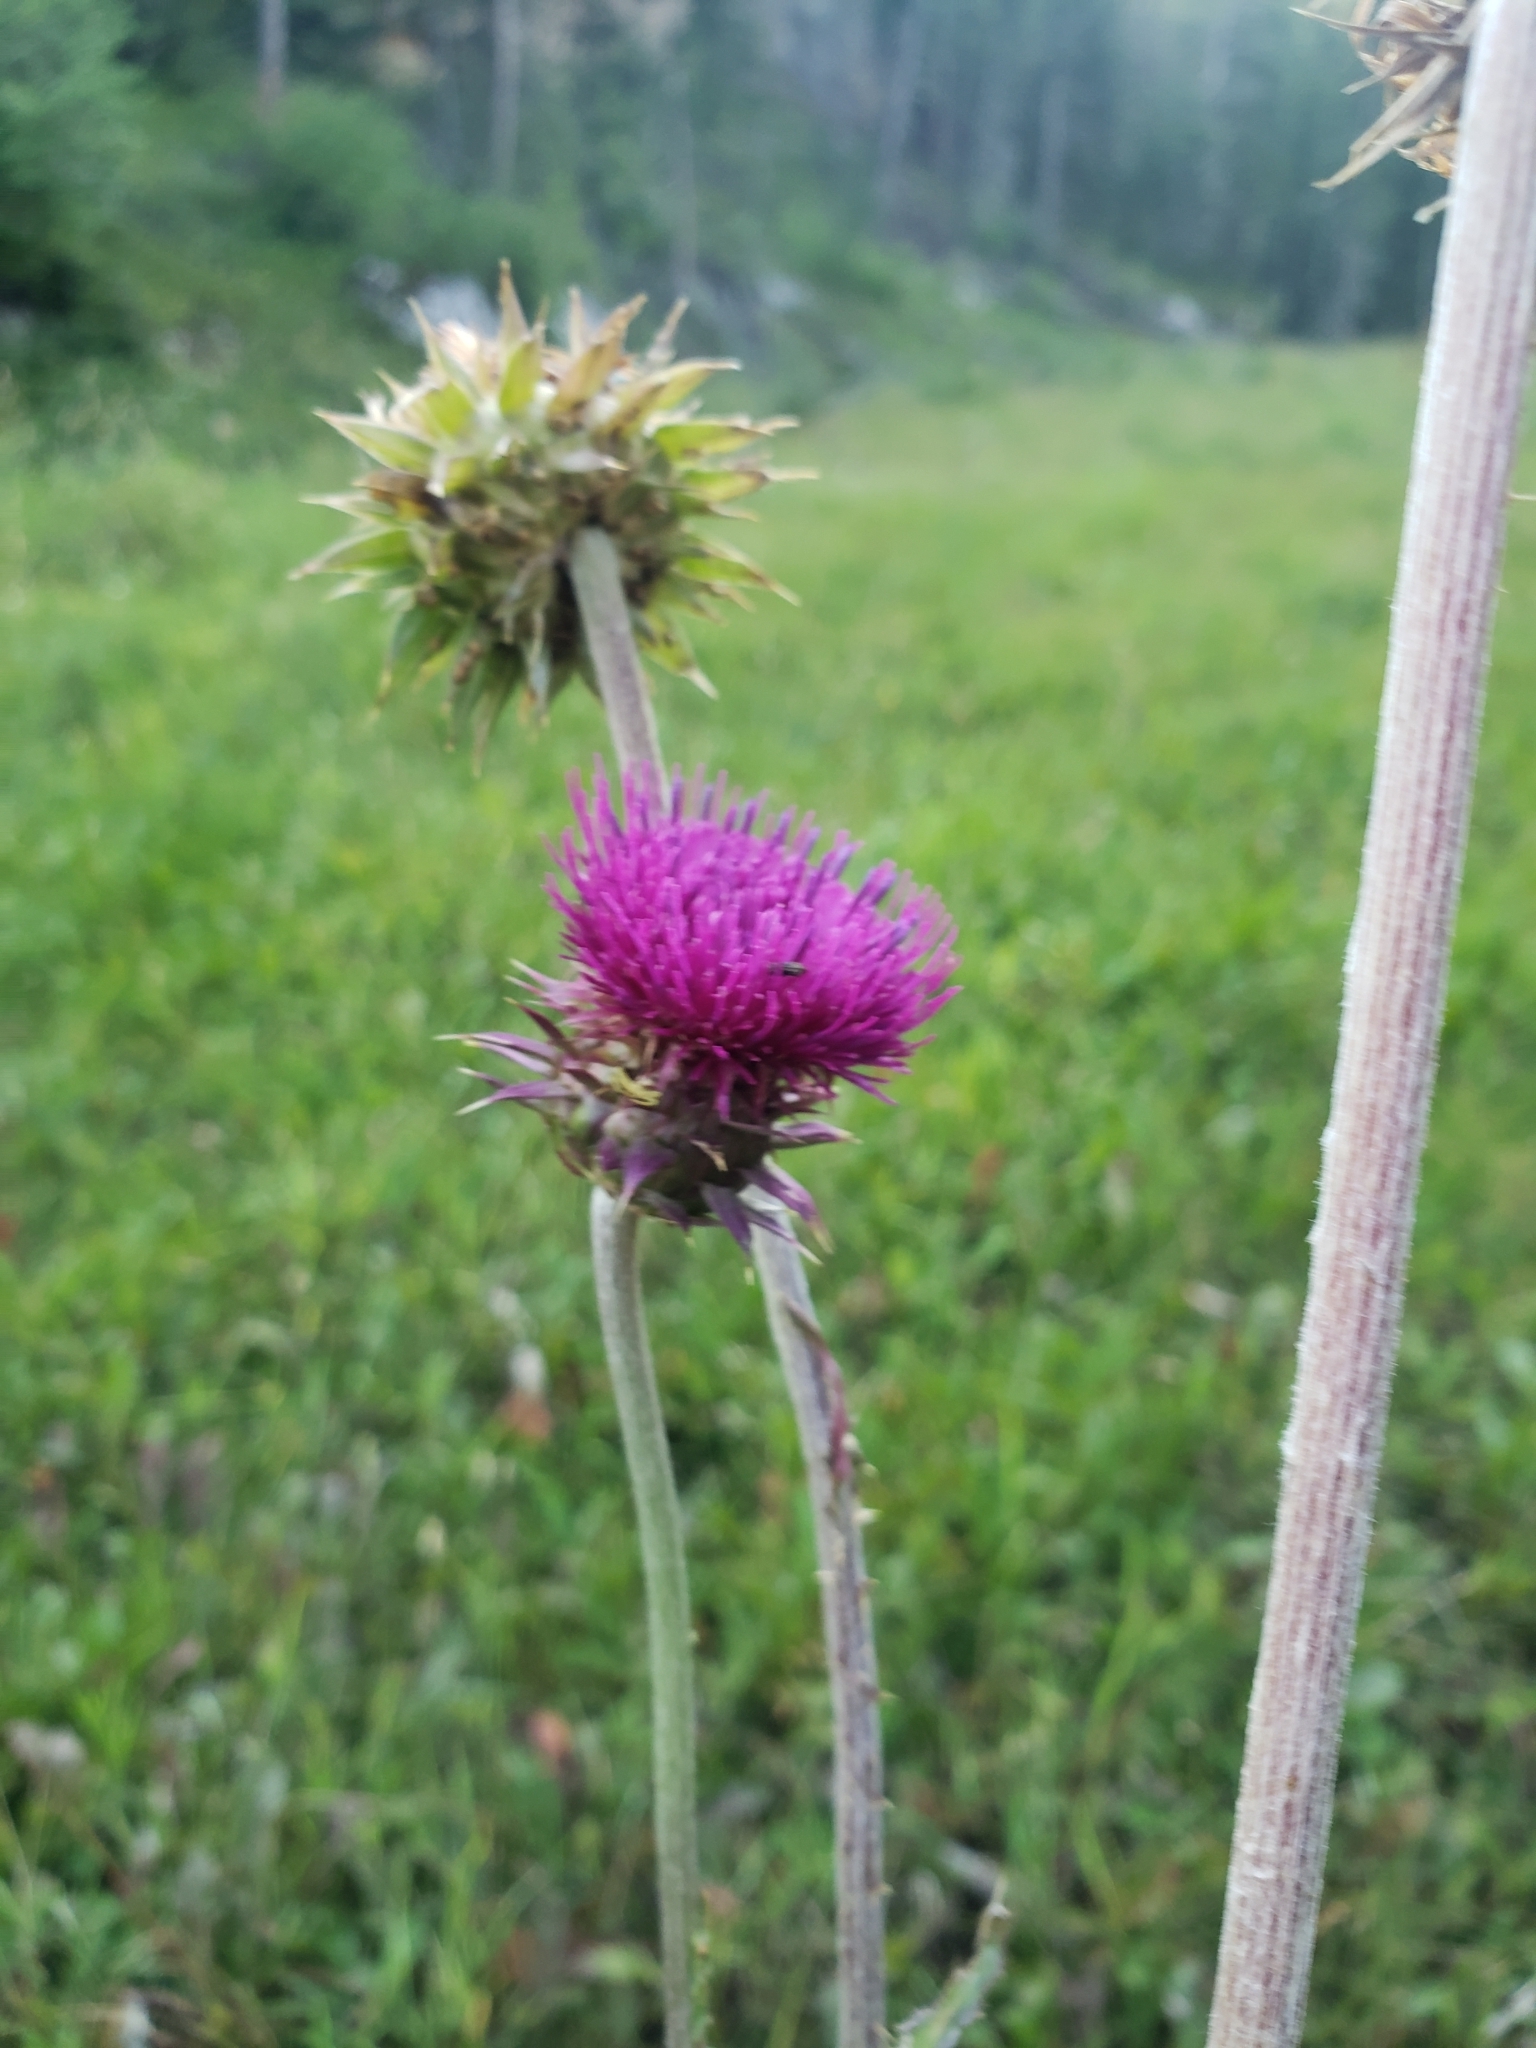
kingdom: Plantae
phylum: Tracheophyta
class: Magnoliopsida
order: Asterales
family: Asteraceae
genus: Carduus
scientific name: Carduus nutans
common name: Musk thistle
